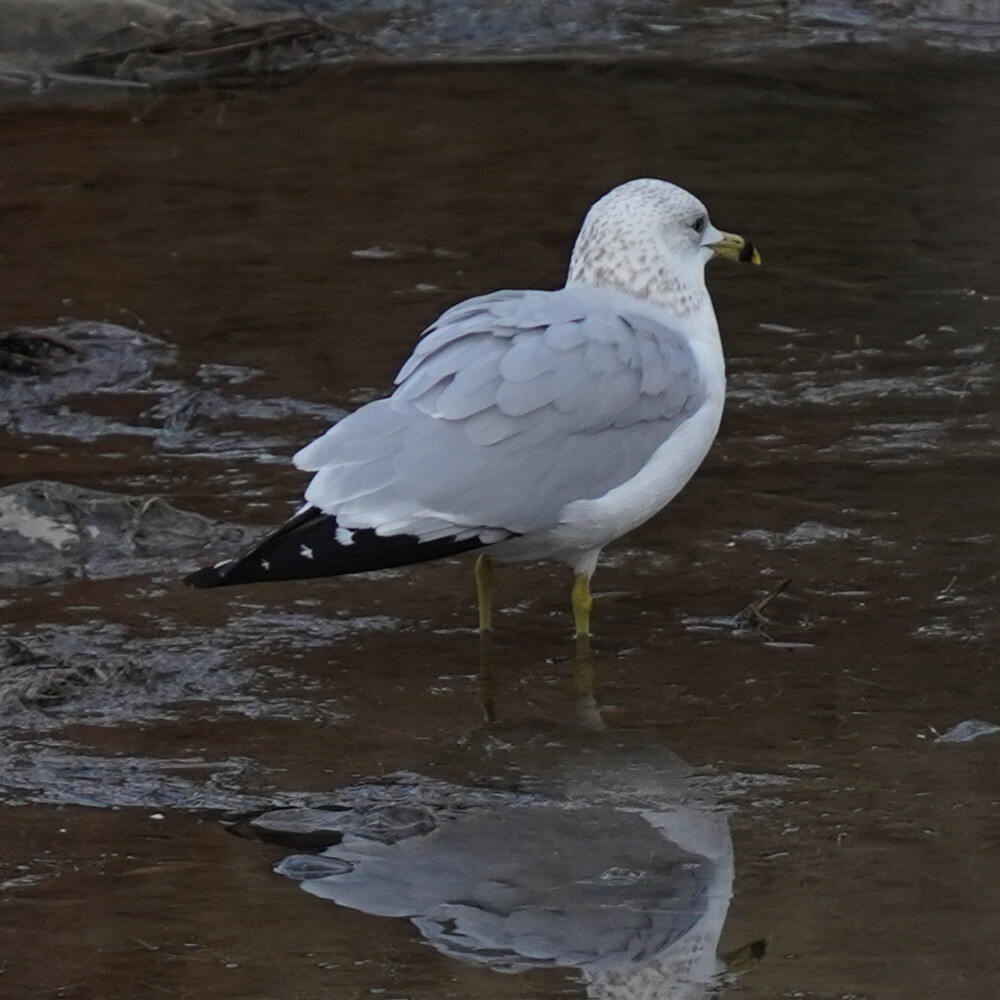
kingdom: Animalia
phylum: Chordata
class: Aves
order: Charadriiformes
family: Laridae
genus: Larus
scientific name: Larus delawarensis
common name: Ring-billed gull
